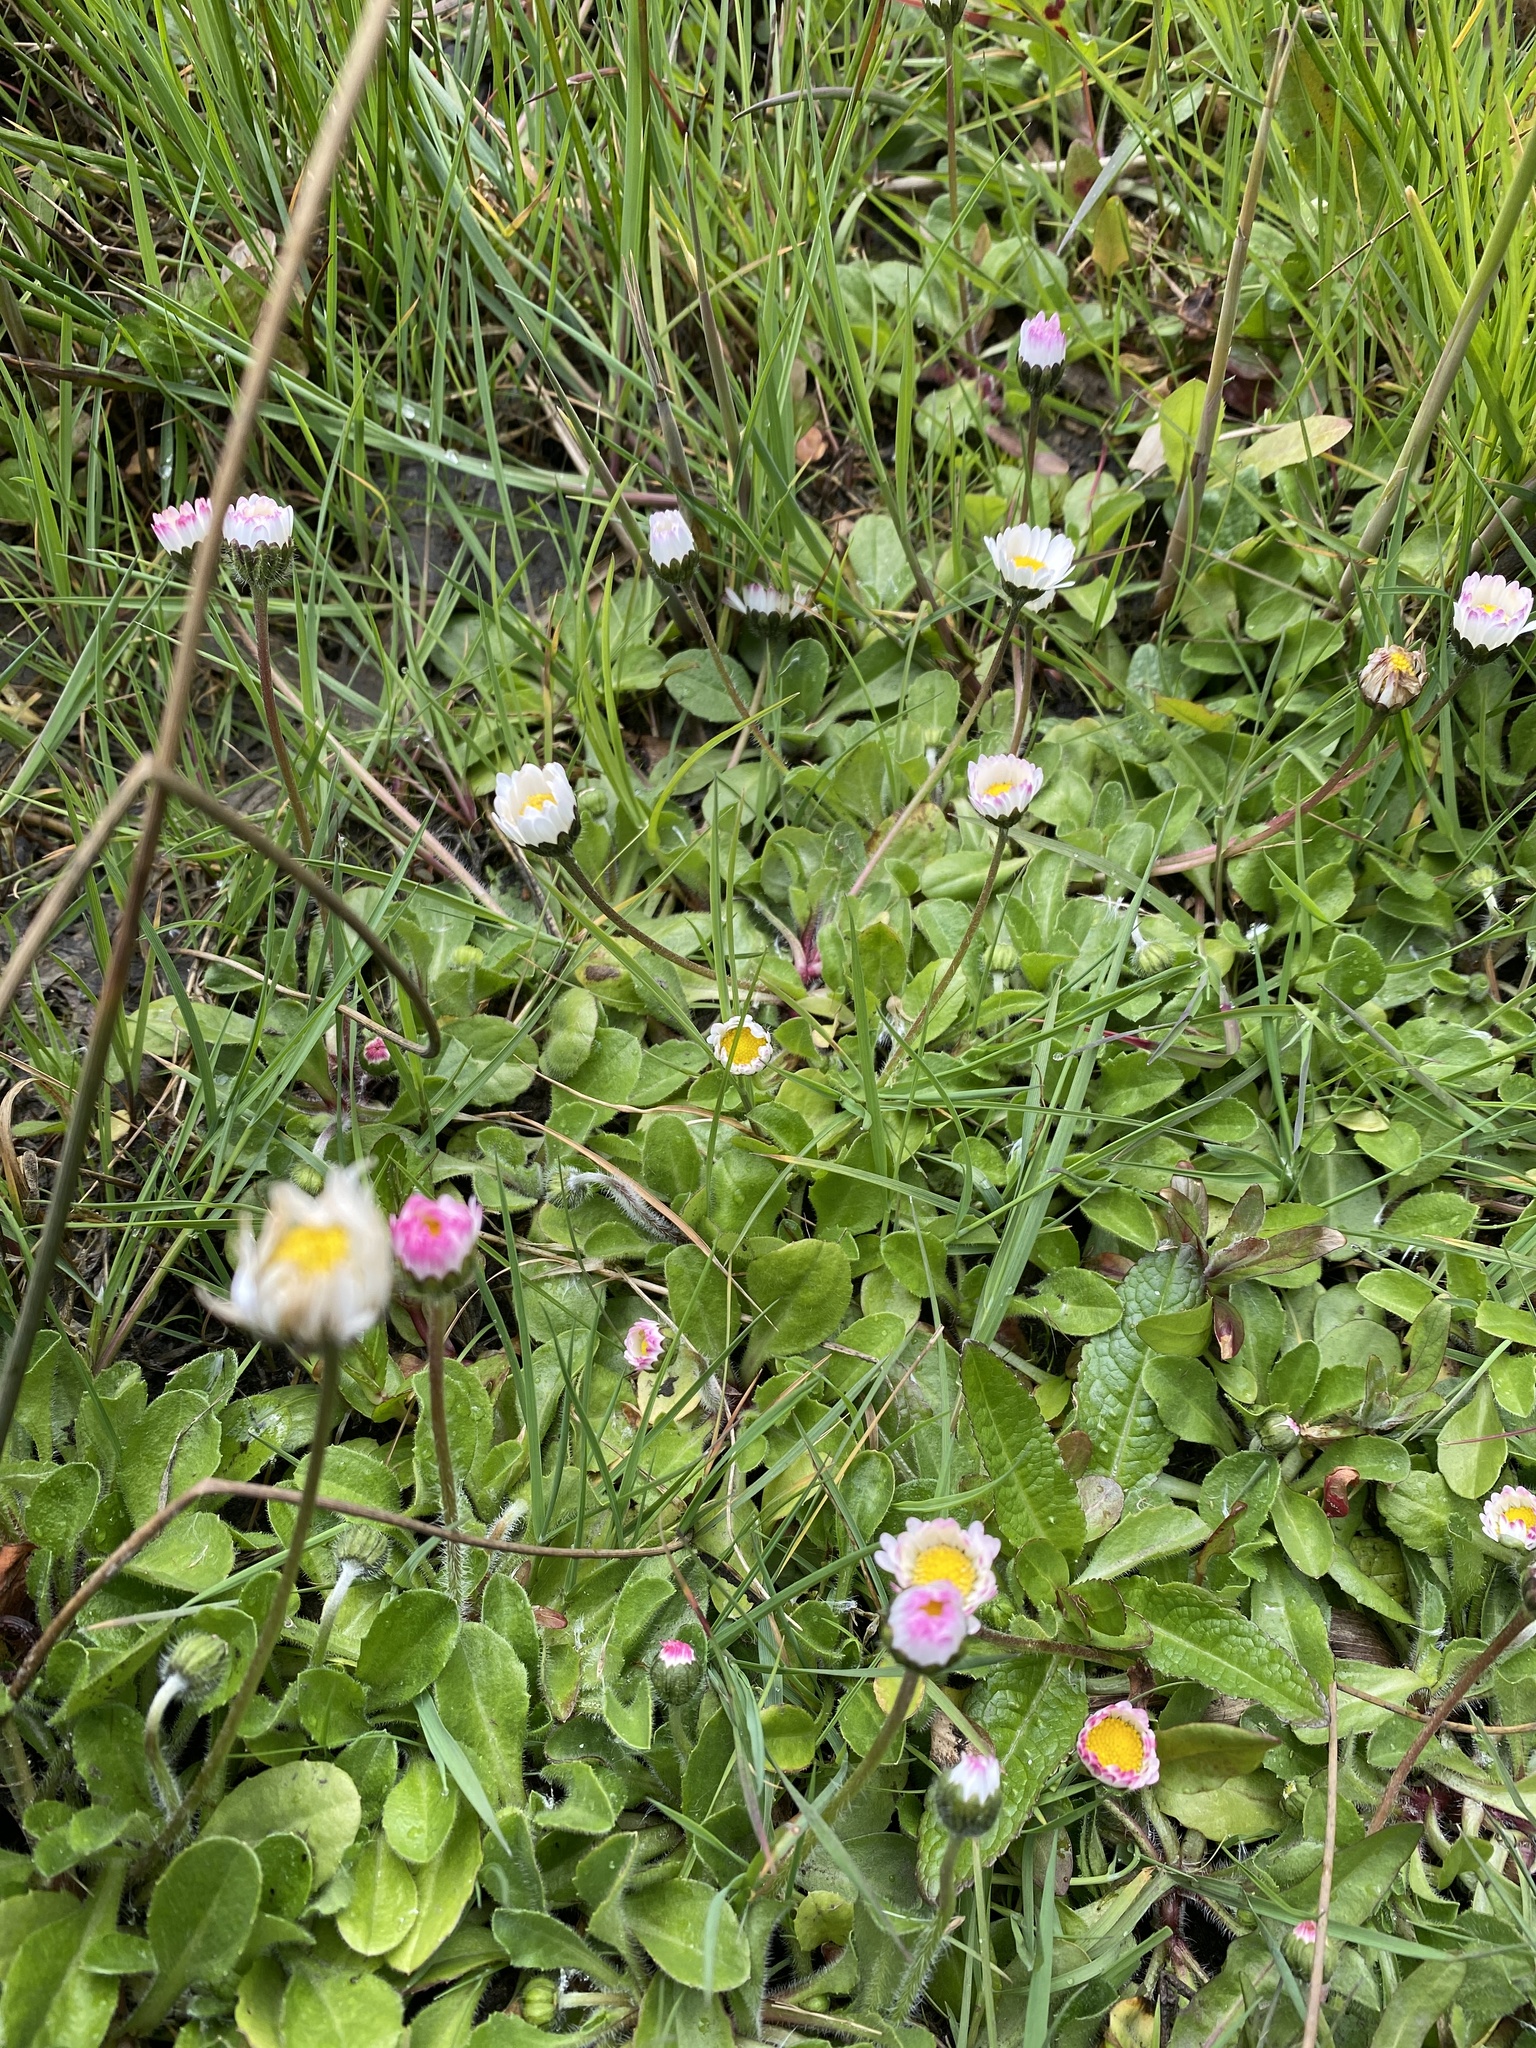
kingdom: Plantae
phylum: Tracheophyta
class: Magnoliopsida
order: Asterales
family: Asteraceae
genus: Bellis
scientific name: Bellis perennis
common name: Lawndaisy
